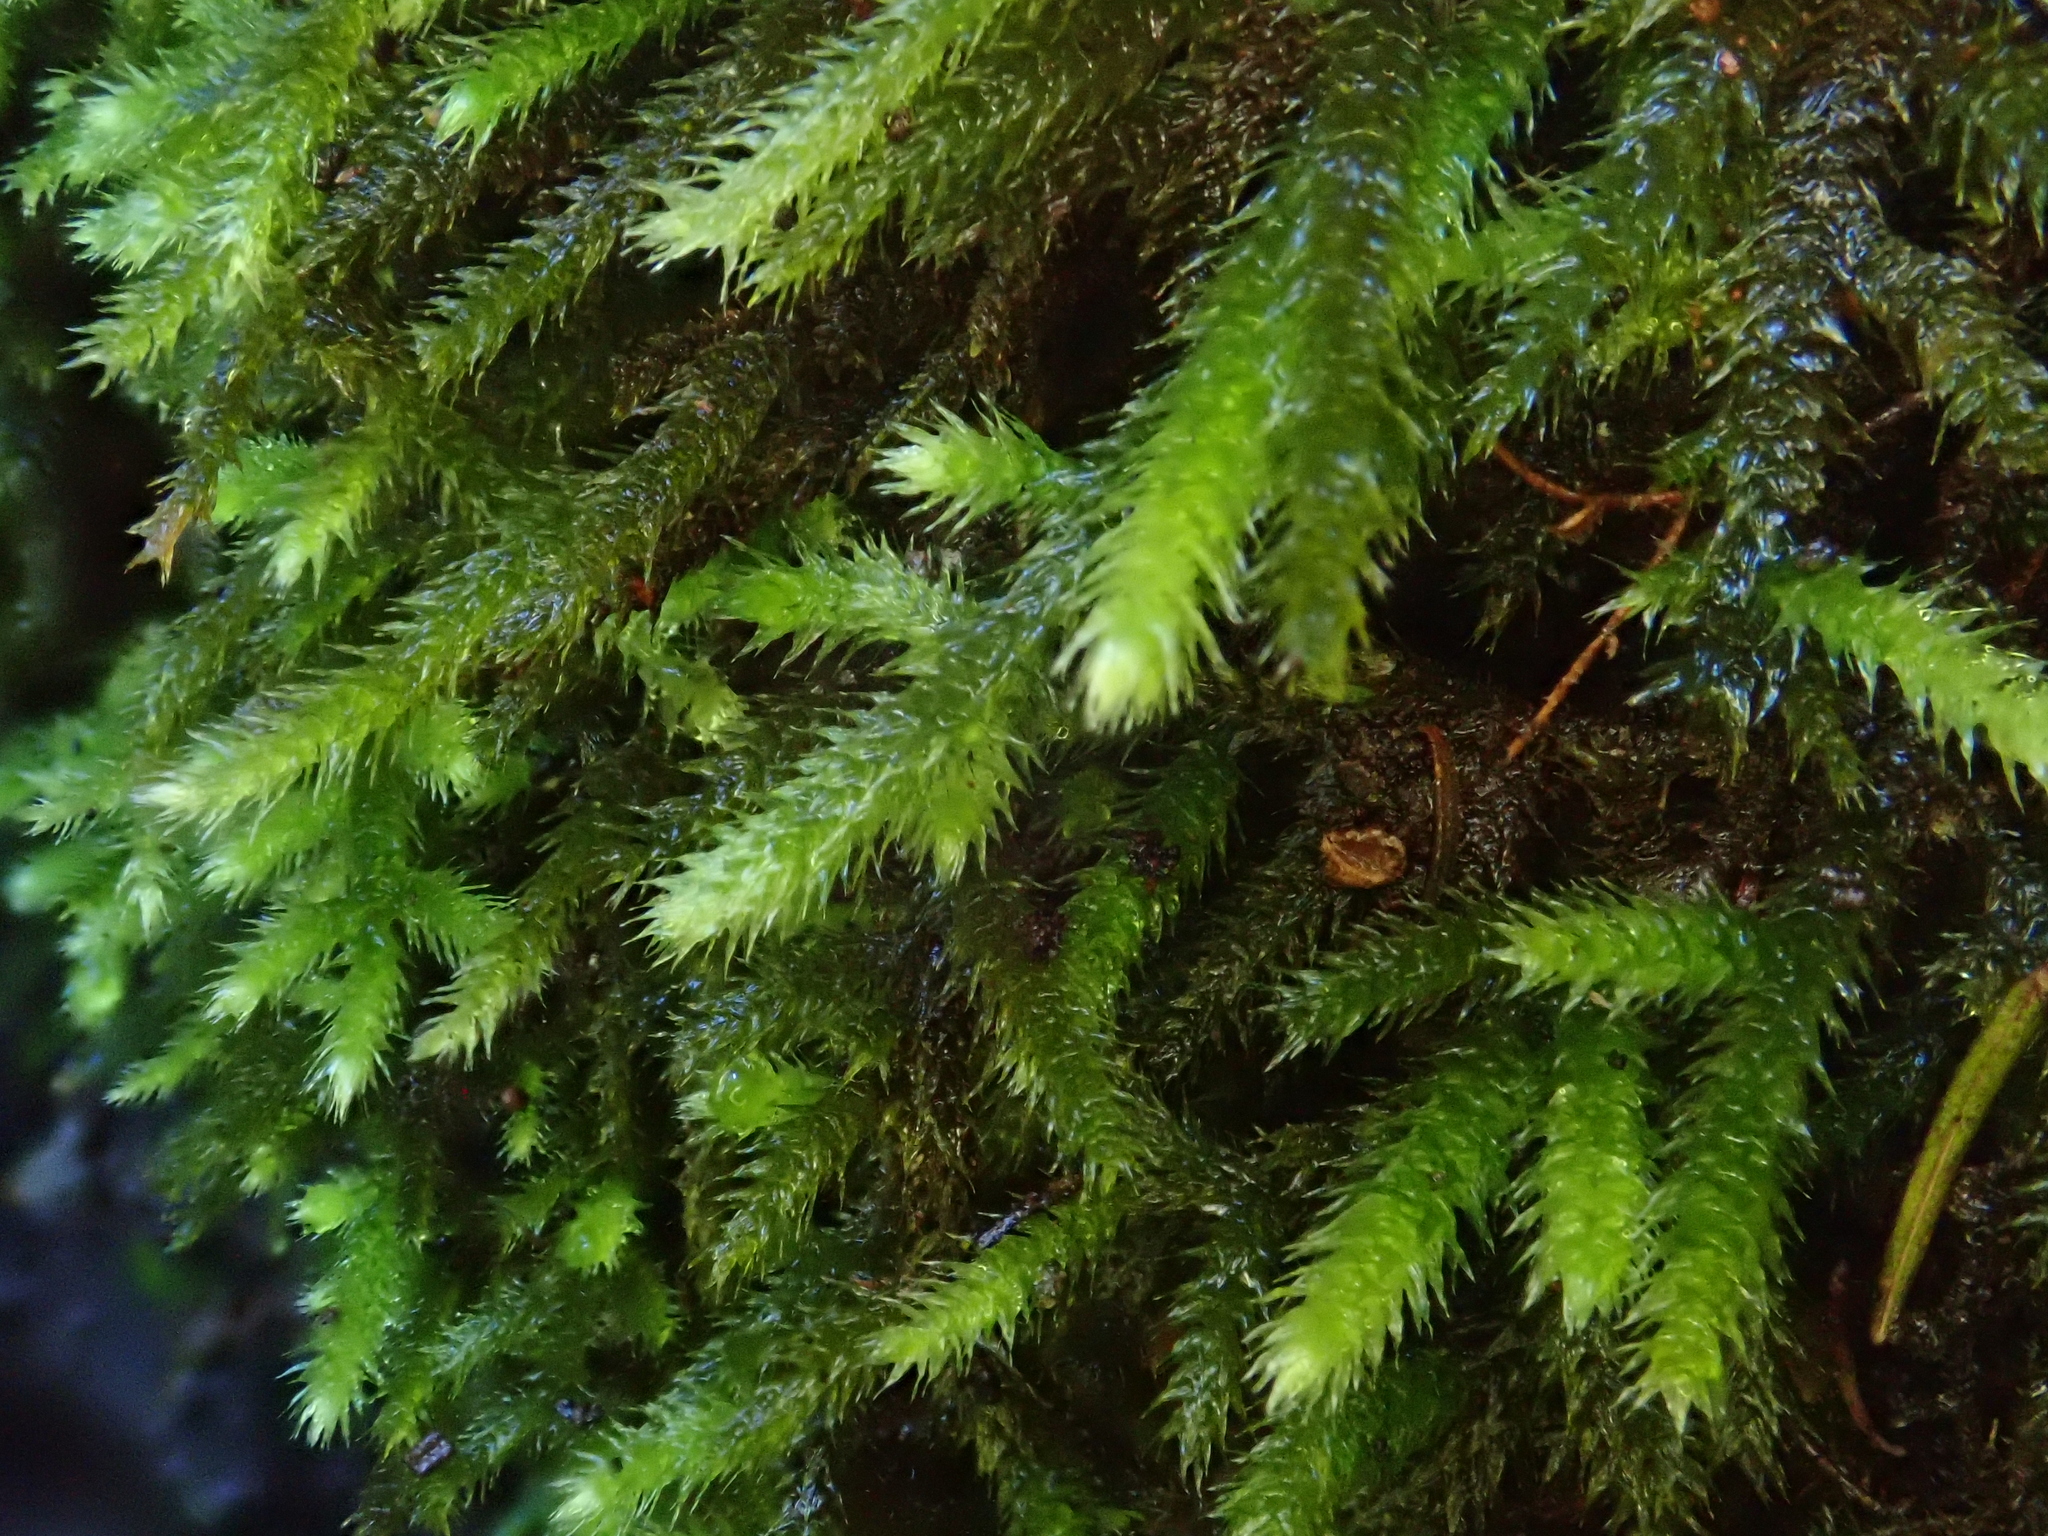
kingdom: Plantae
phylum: Bryophyta
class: Bryopsida
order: Hypnales
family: Brachytheciaceae
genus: Cirriphyllum
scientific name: Cirriphyllum crassinervium
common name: Beech feather-moss
